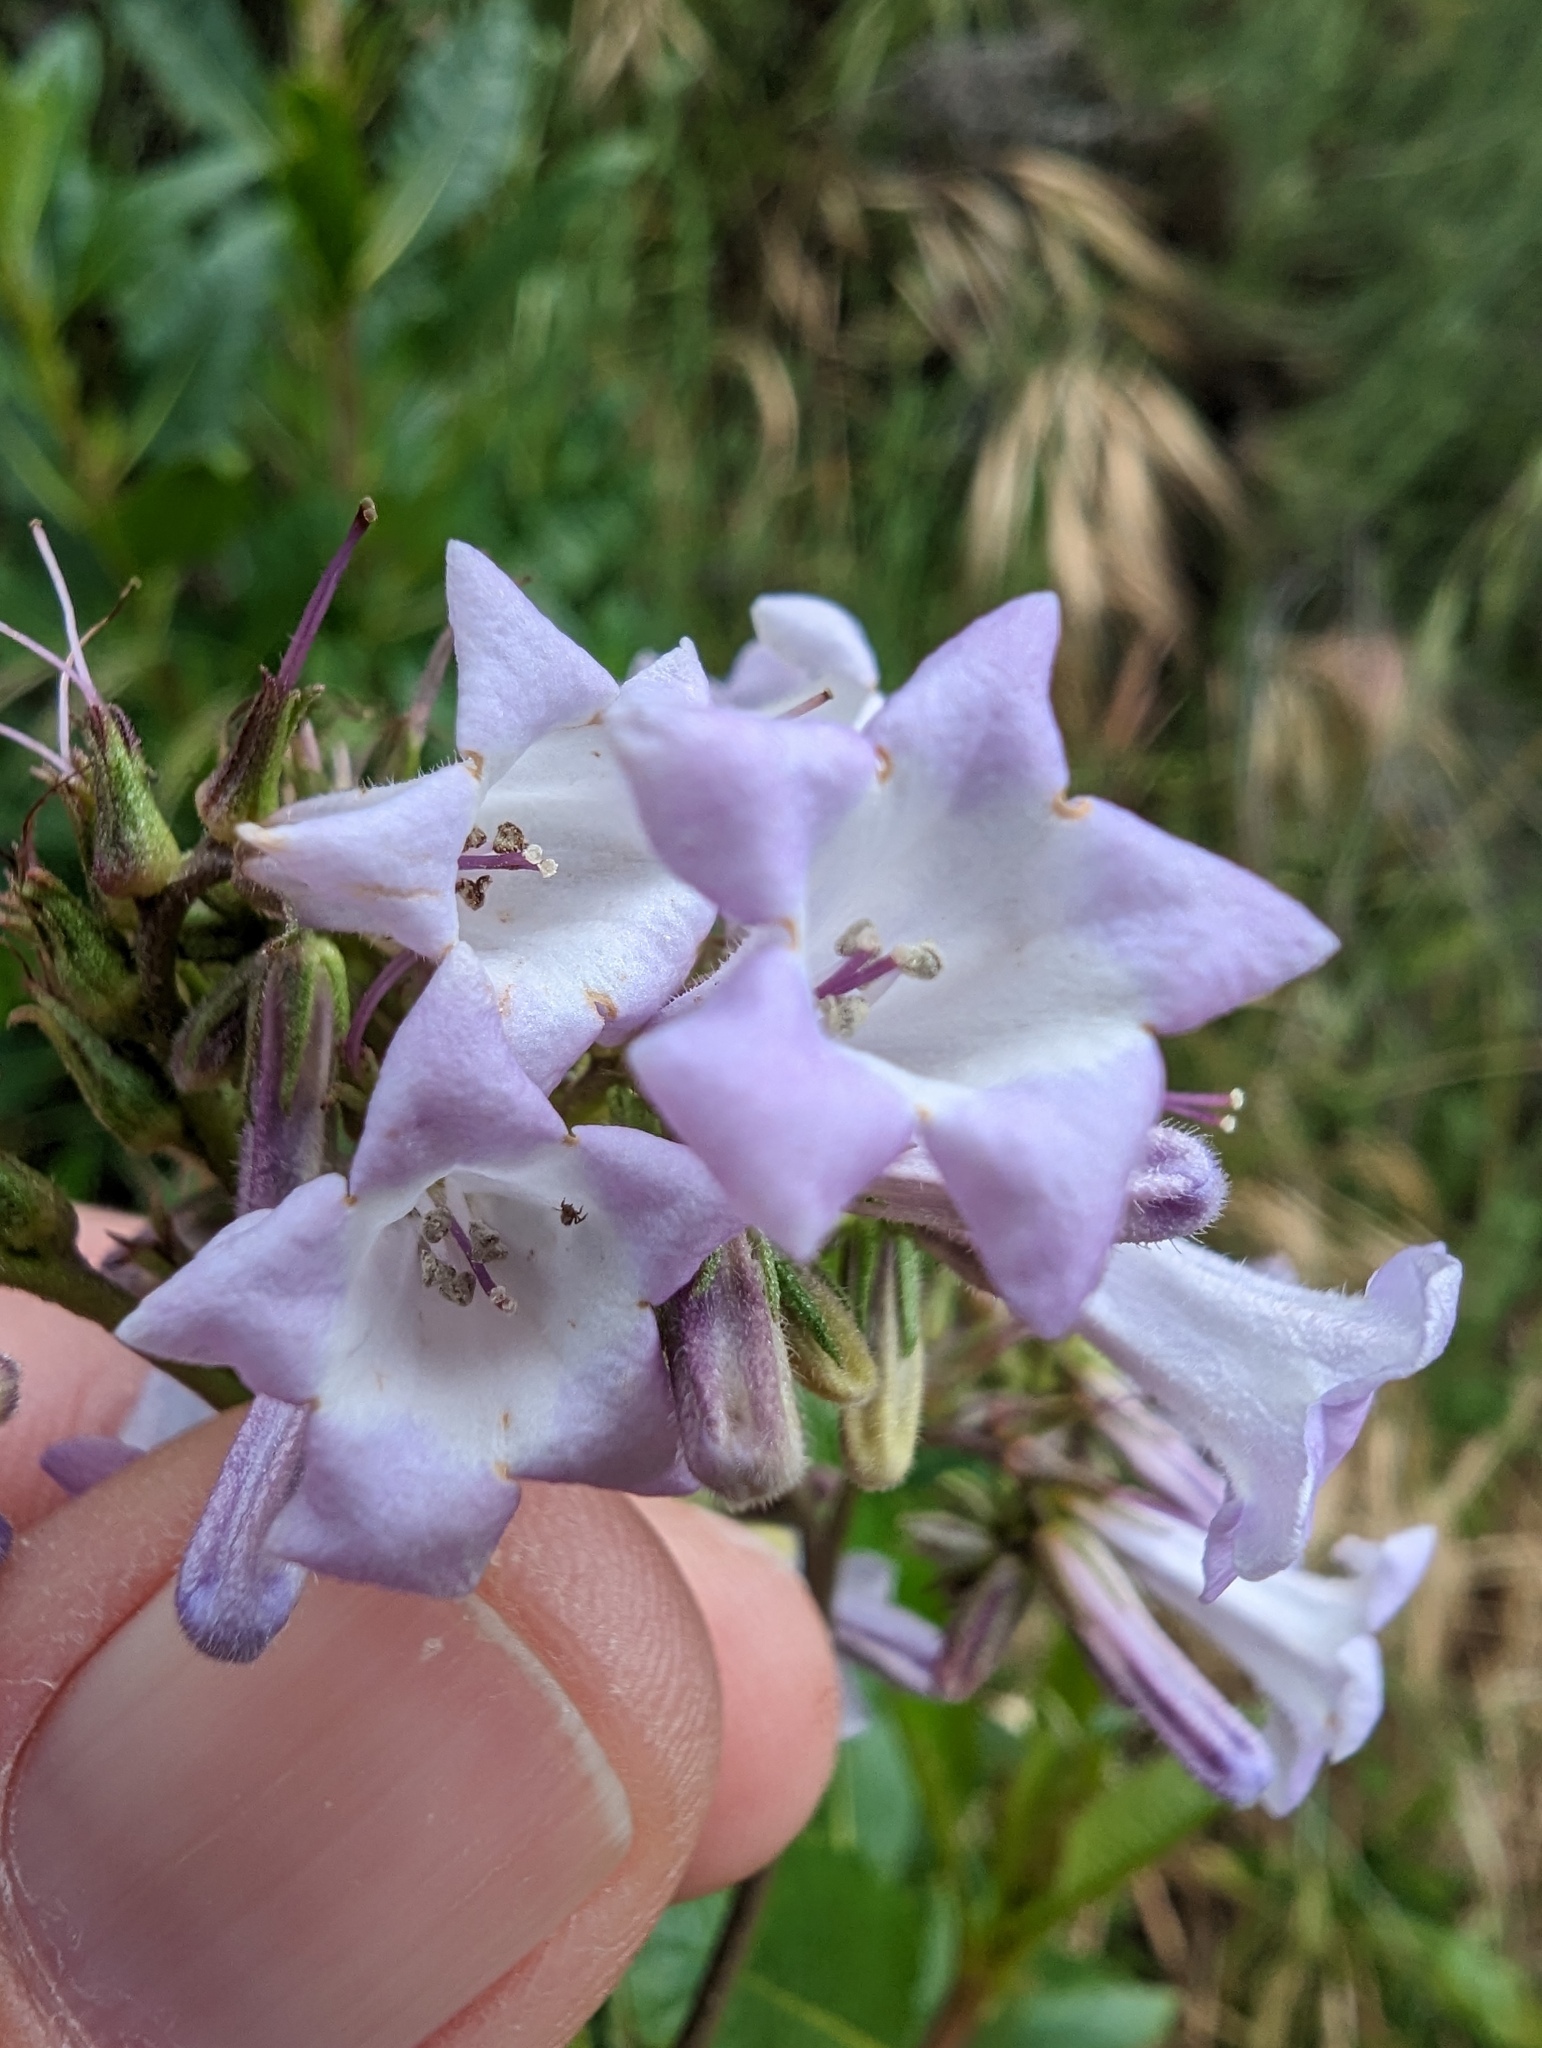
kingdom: Plantae
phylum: Tracheophyta
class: Magnoliopsida
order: Boraginales
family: Namaceae
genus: Eriodictyon
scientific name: Eriodictyon californicum
